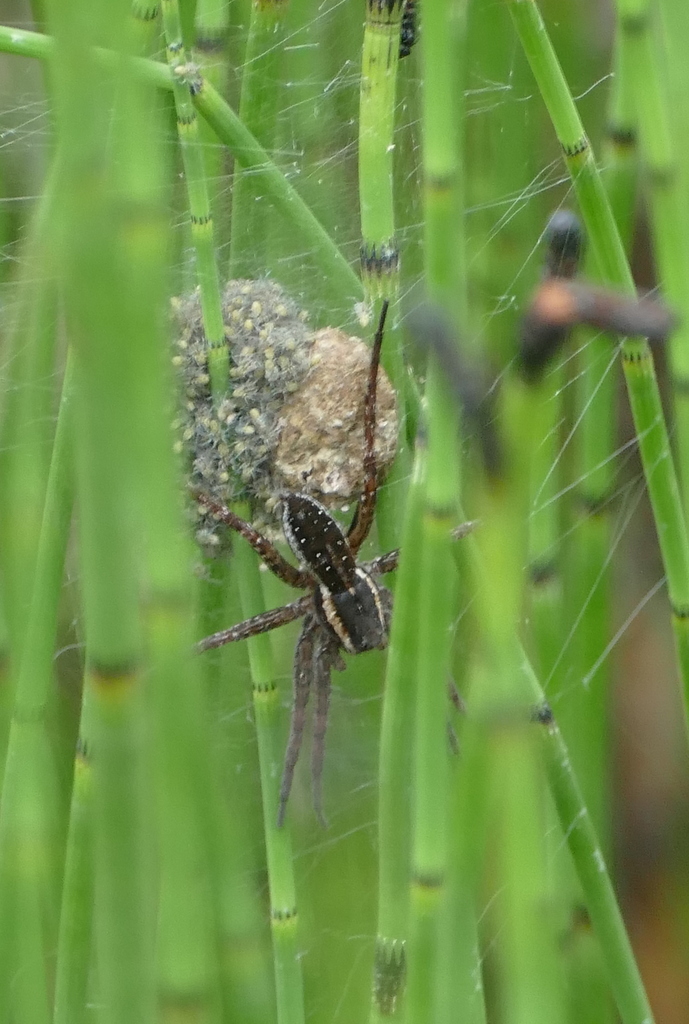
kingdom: Animalia
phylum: Arthropoda
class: Arachnida
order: Araneae
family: Pisauridae
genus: Dolomedes
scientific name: Dolomedes fimbriatus
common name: Raft spider
